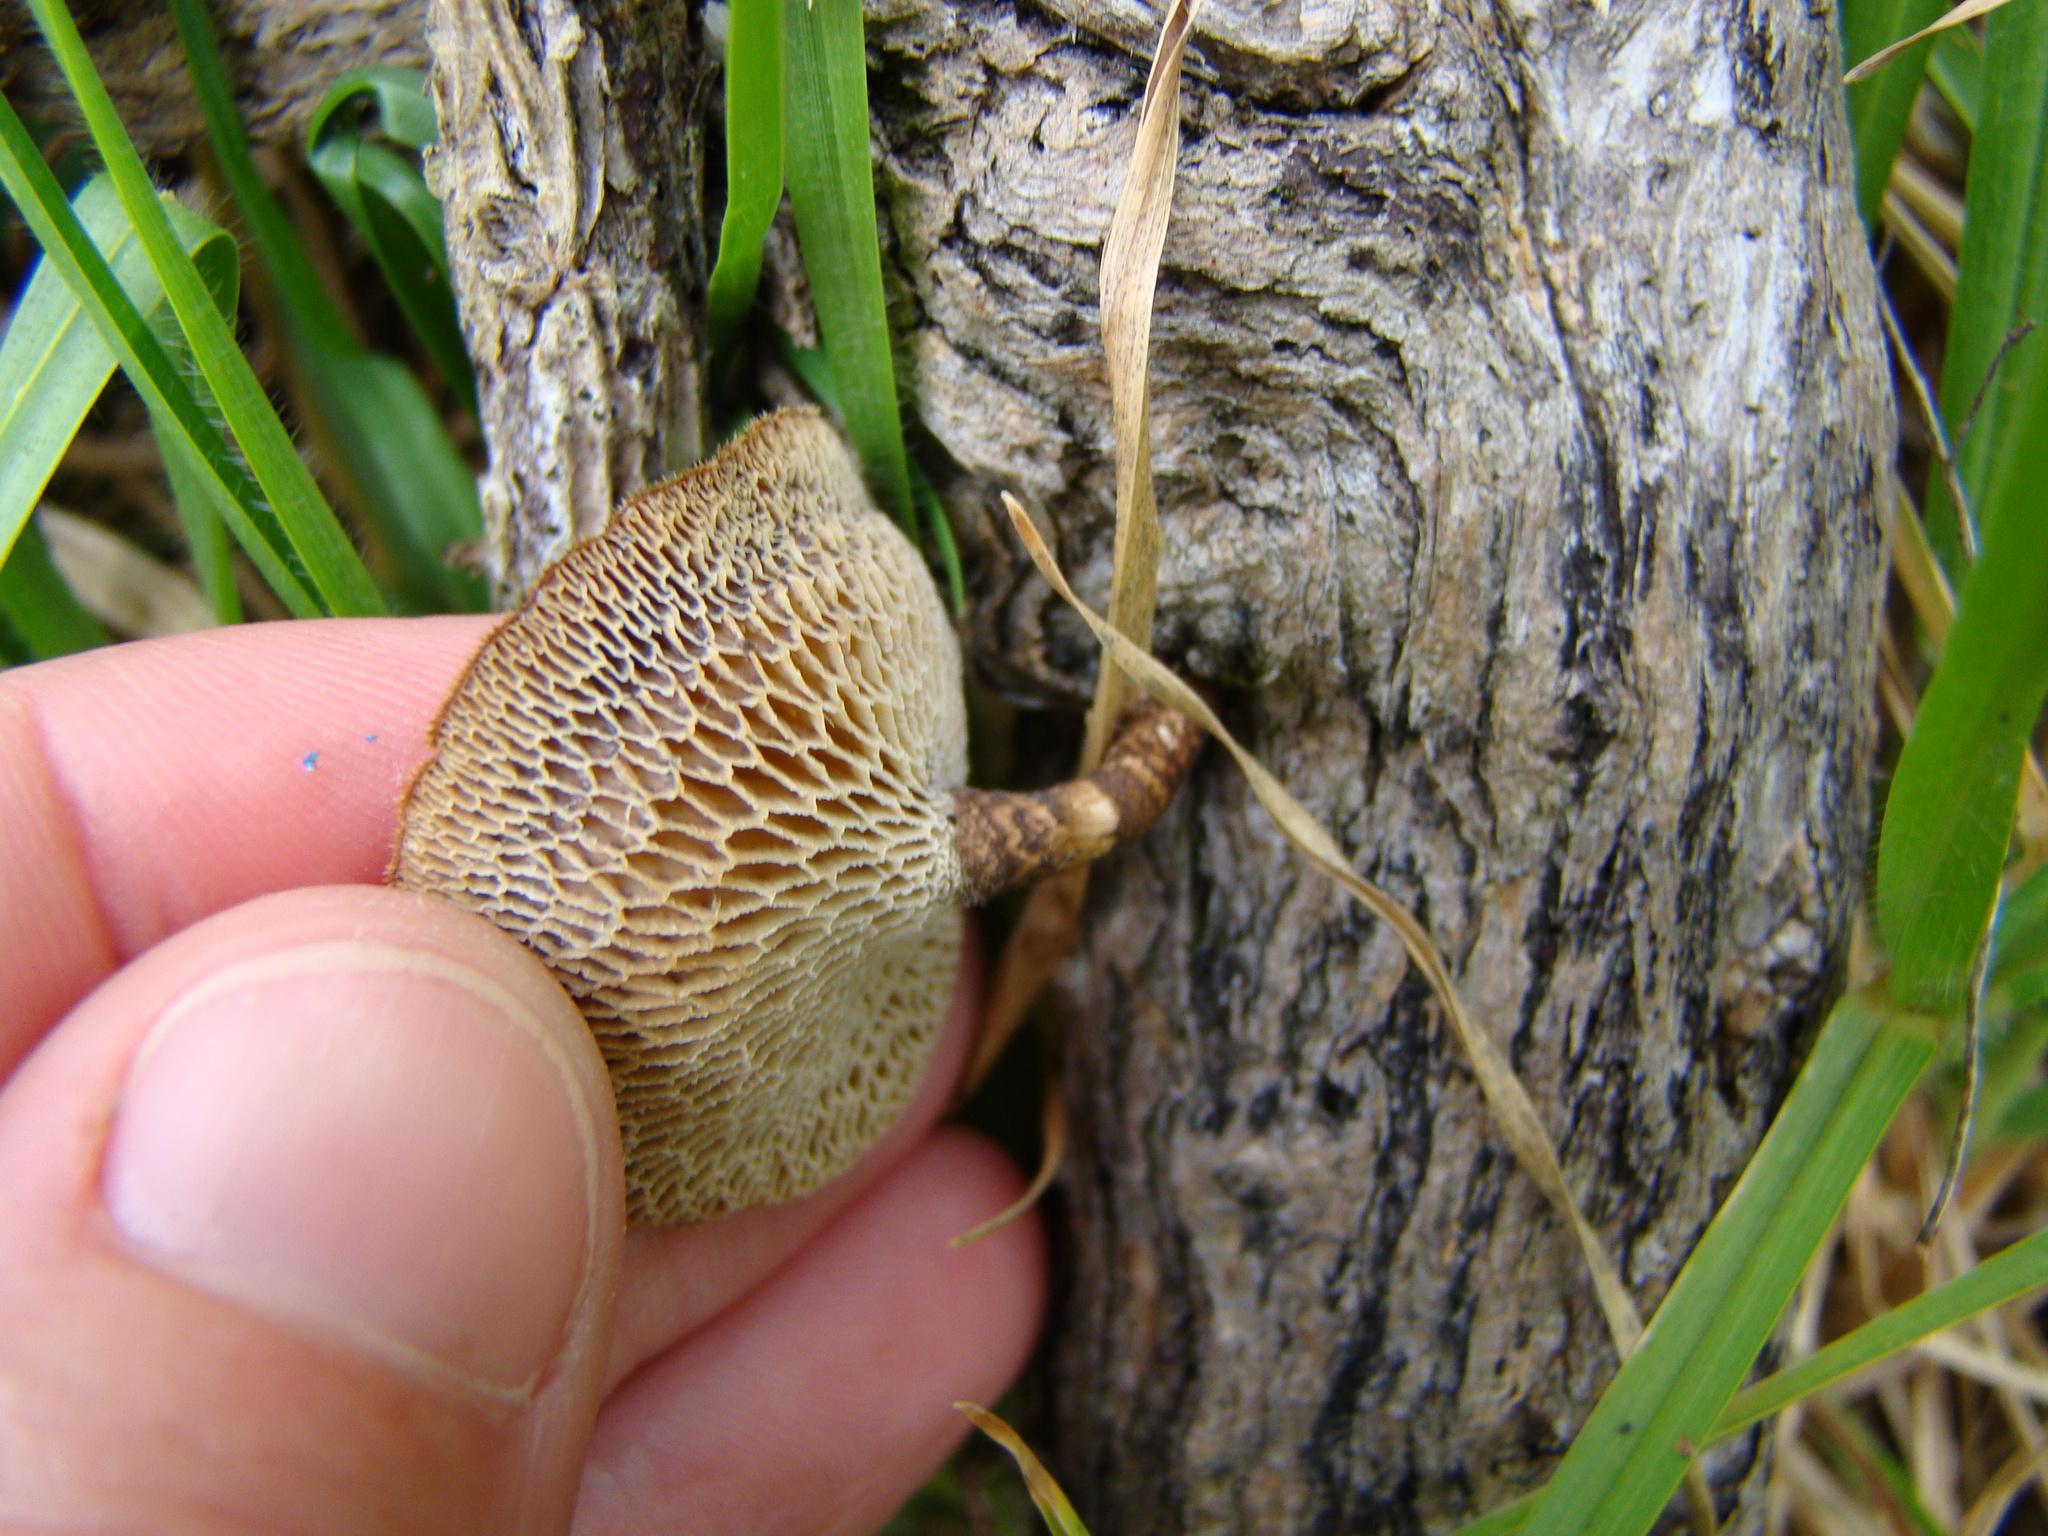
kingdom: Fungi
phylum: Basidiomycota
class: Agaricomycetes
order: Polyporales
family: Polyporaceae
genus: Lentinus
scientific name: Lentinus arcularius
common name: Spring polypore
